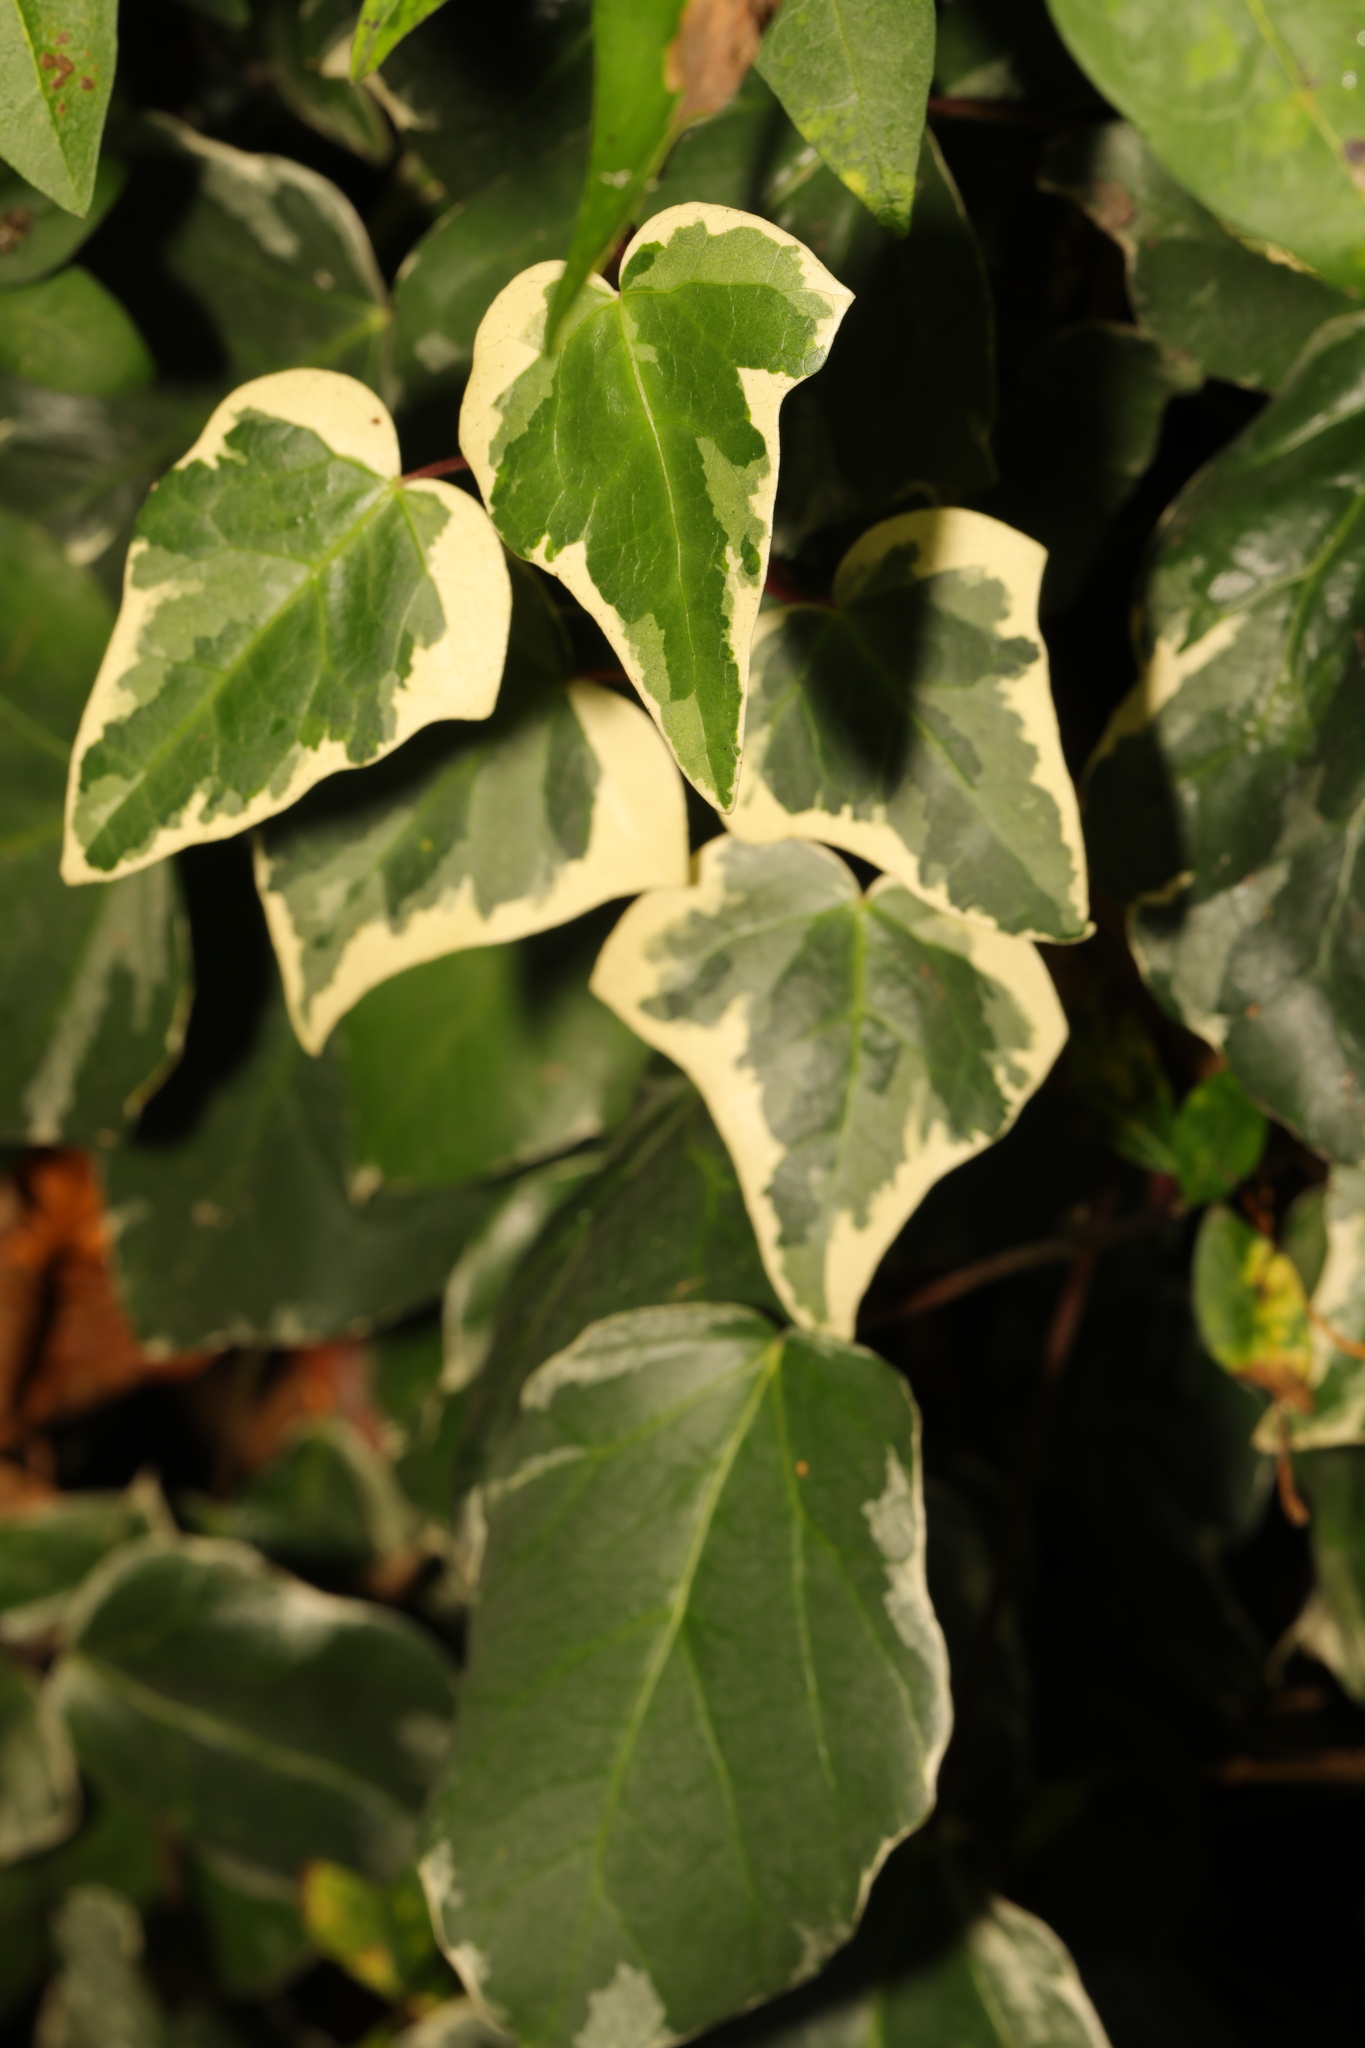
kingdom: Plantae
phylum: Tracheophyta
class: Magnoliopsida
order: Apiales
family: Araliaceae
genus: Hedera
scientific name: Hedera algeriensis
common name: Algerian ivy
